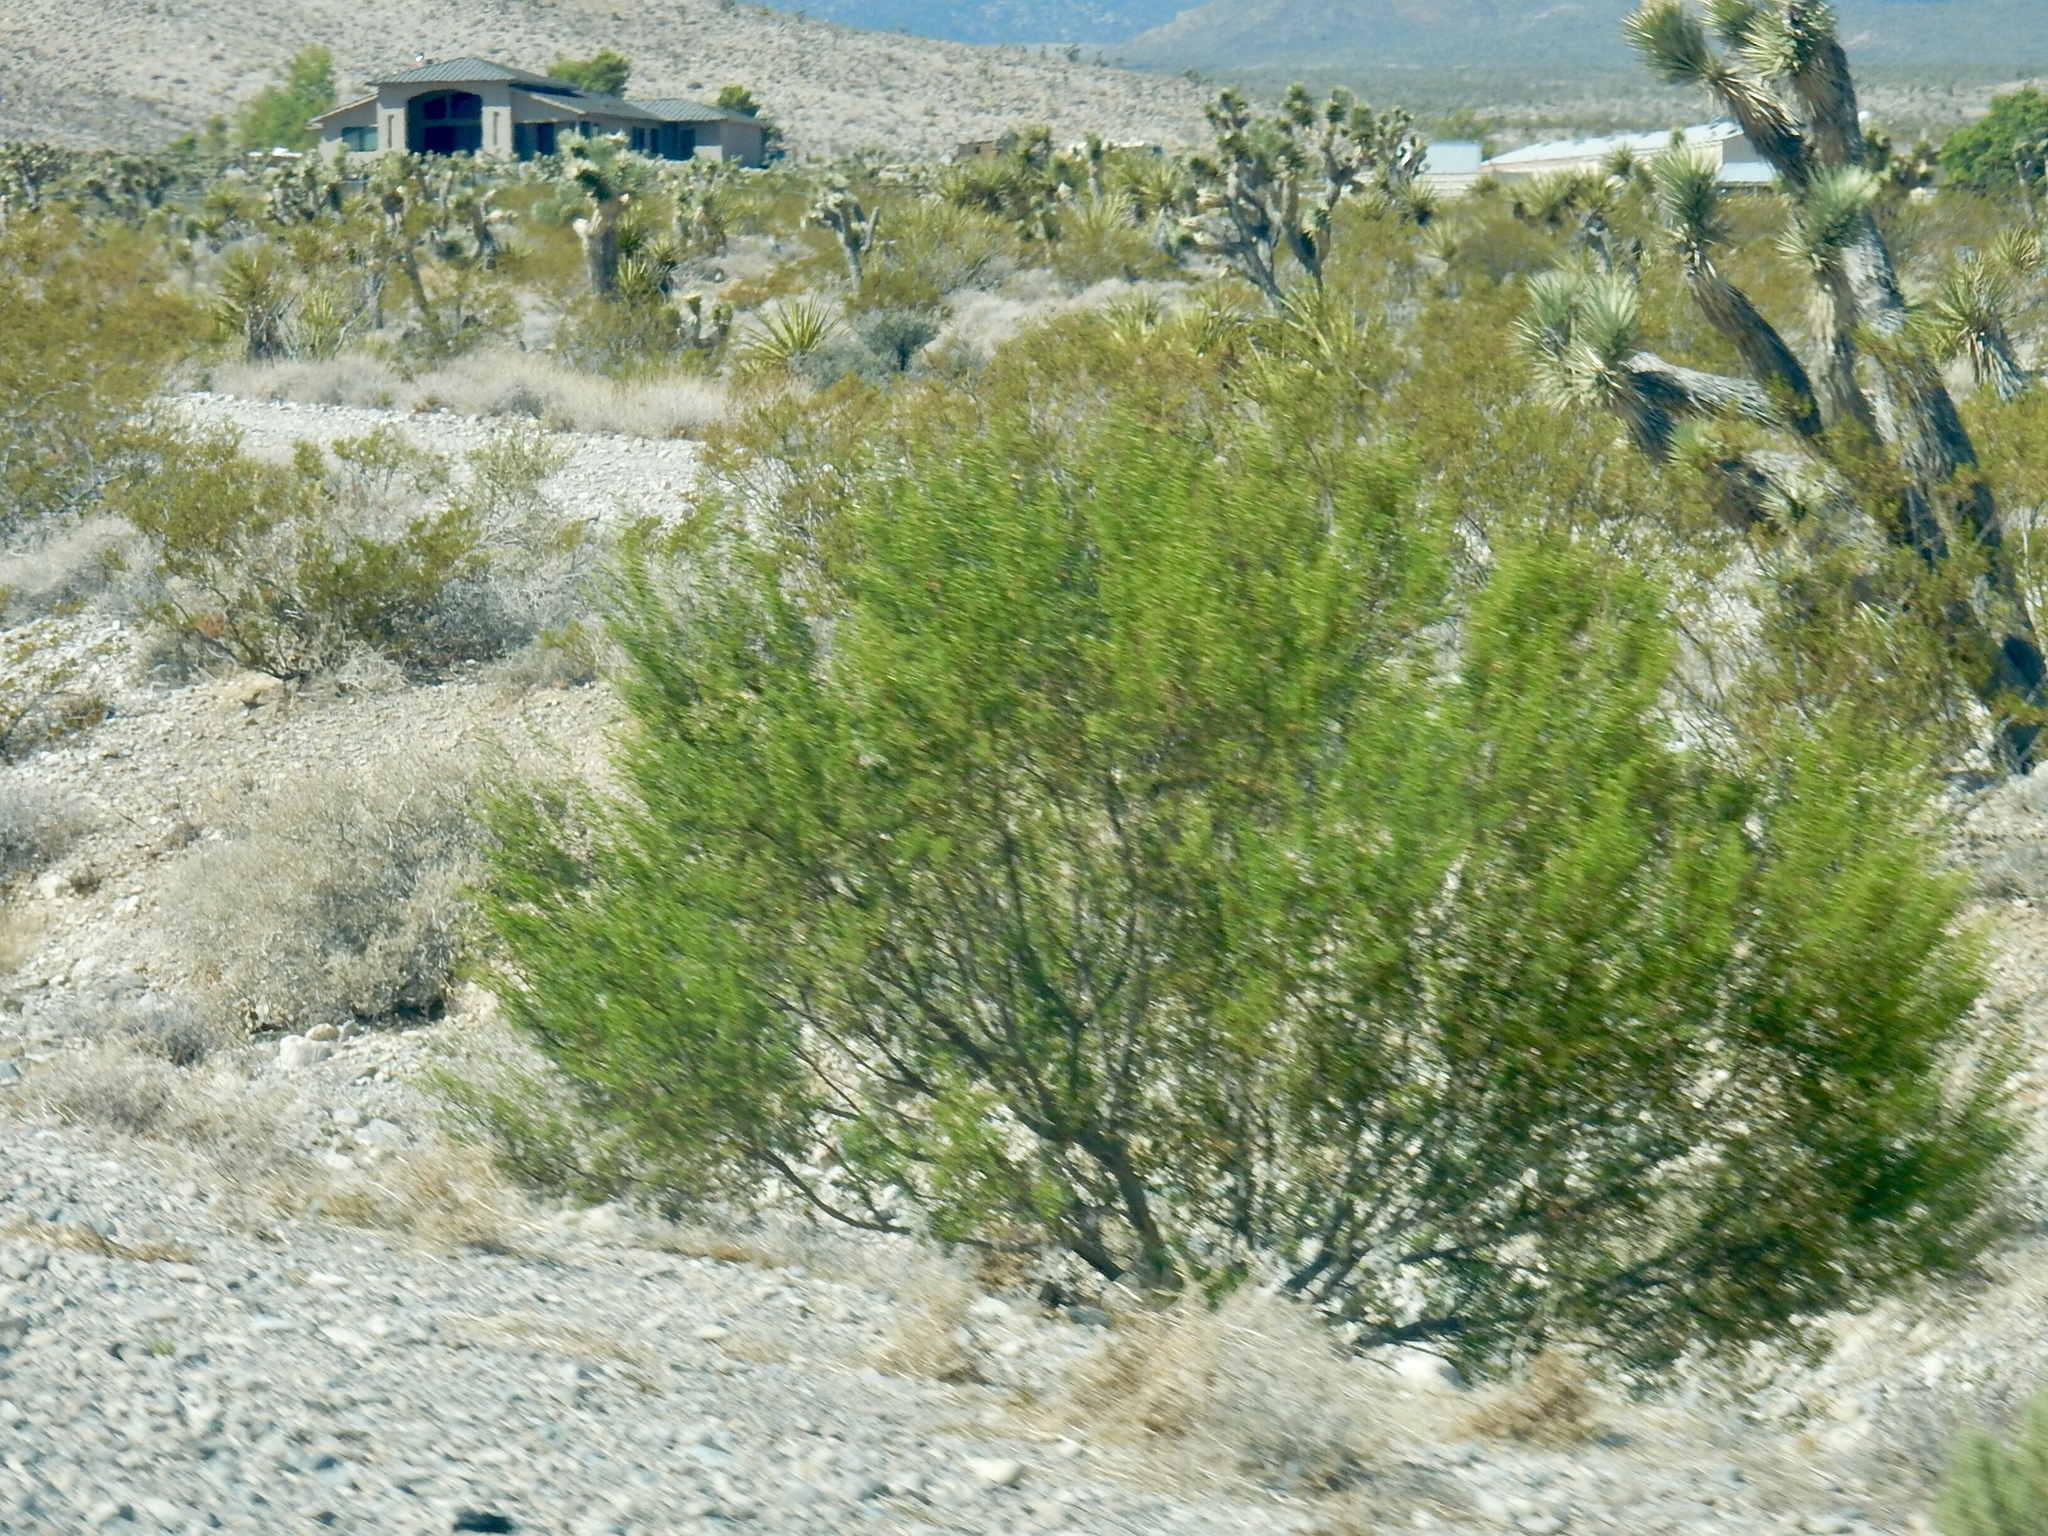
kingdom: Plantae
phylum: Tracheophyta
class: Magnoliopsida
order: Zygophyllales
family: Zygophyllaceae
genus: Larrea
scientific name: Larrea tridentata
